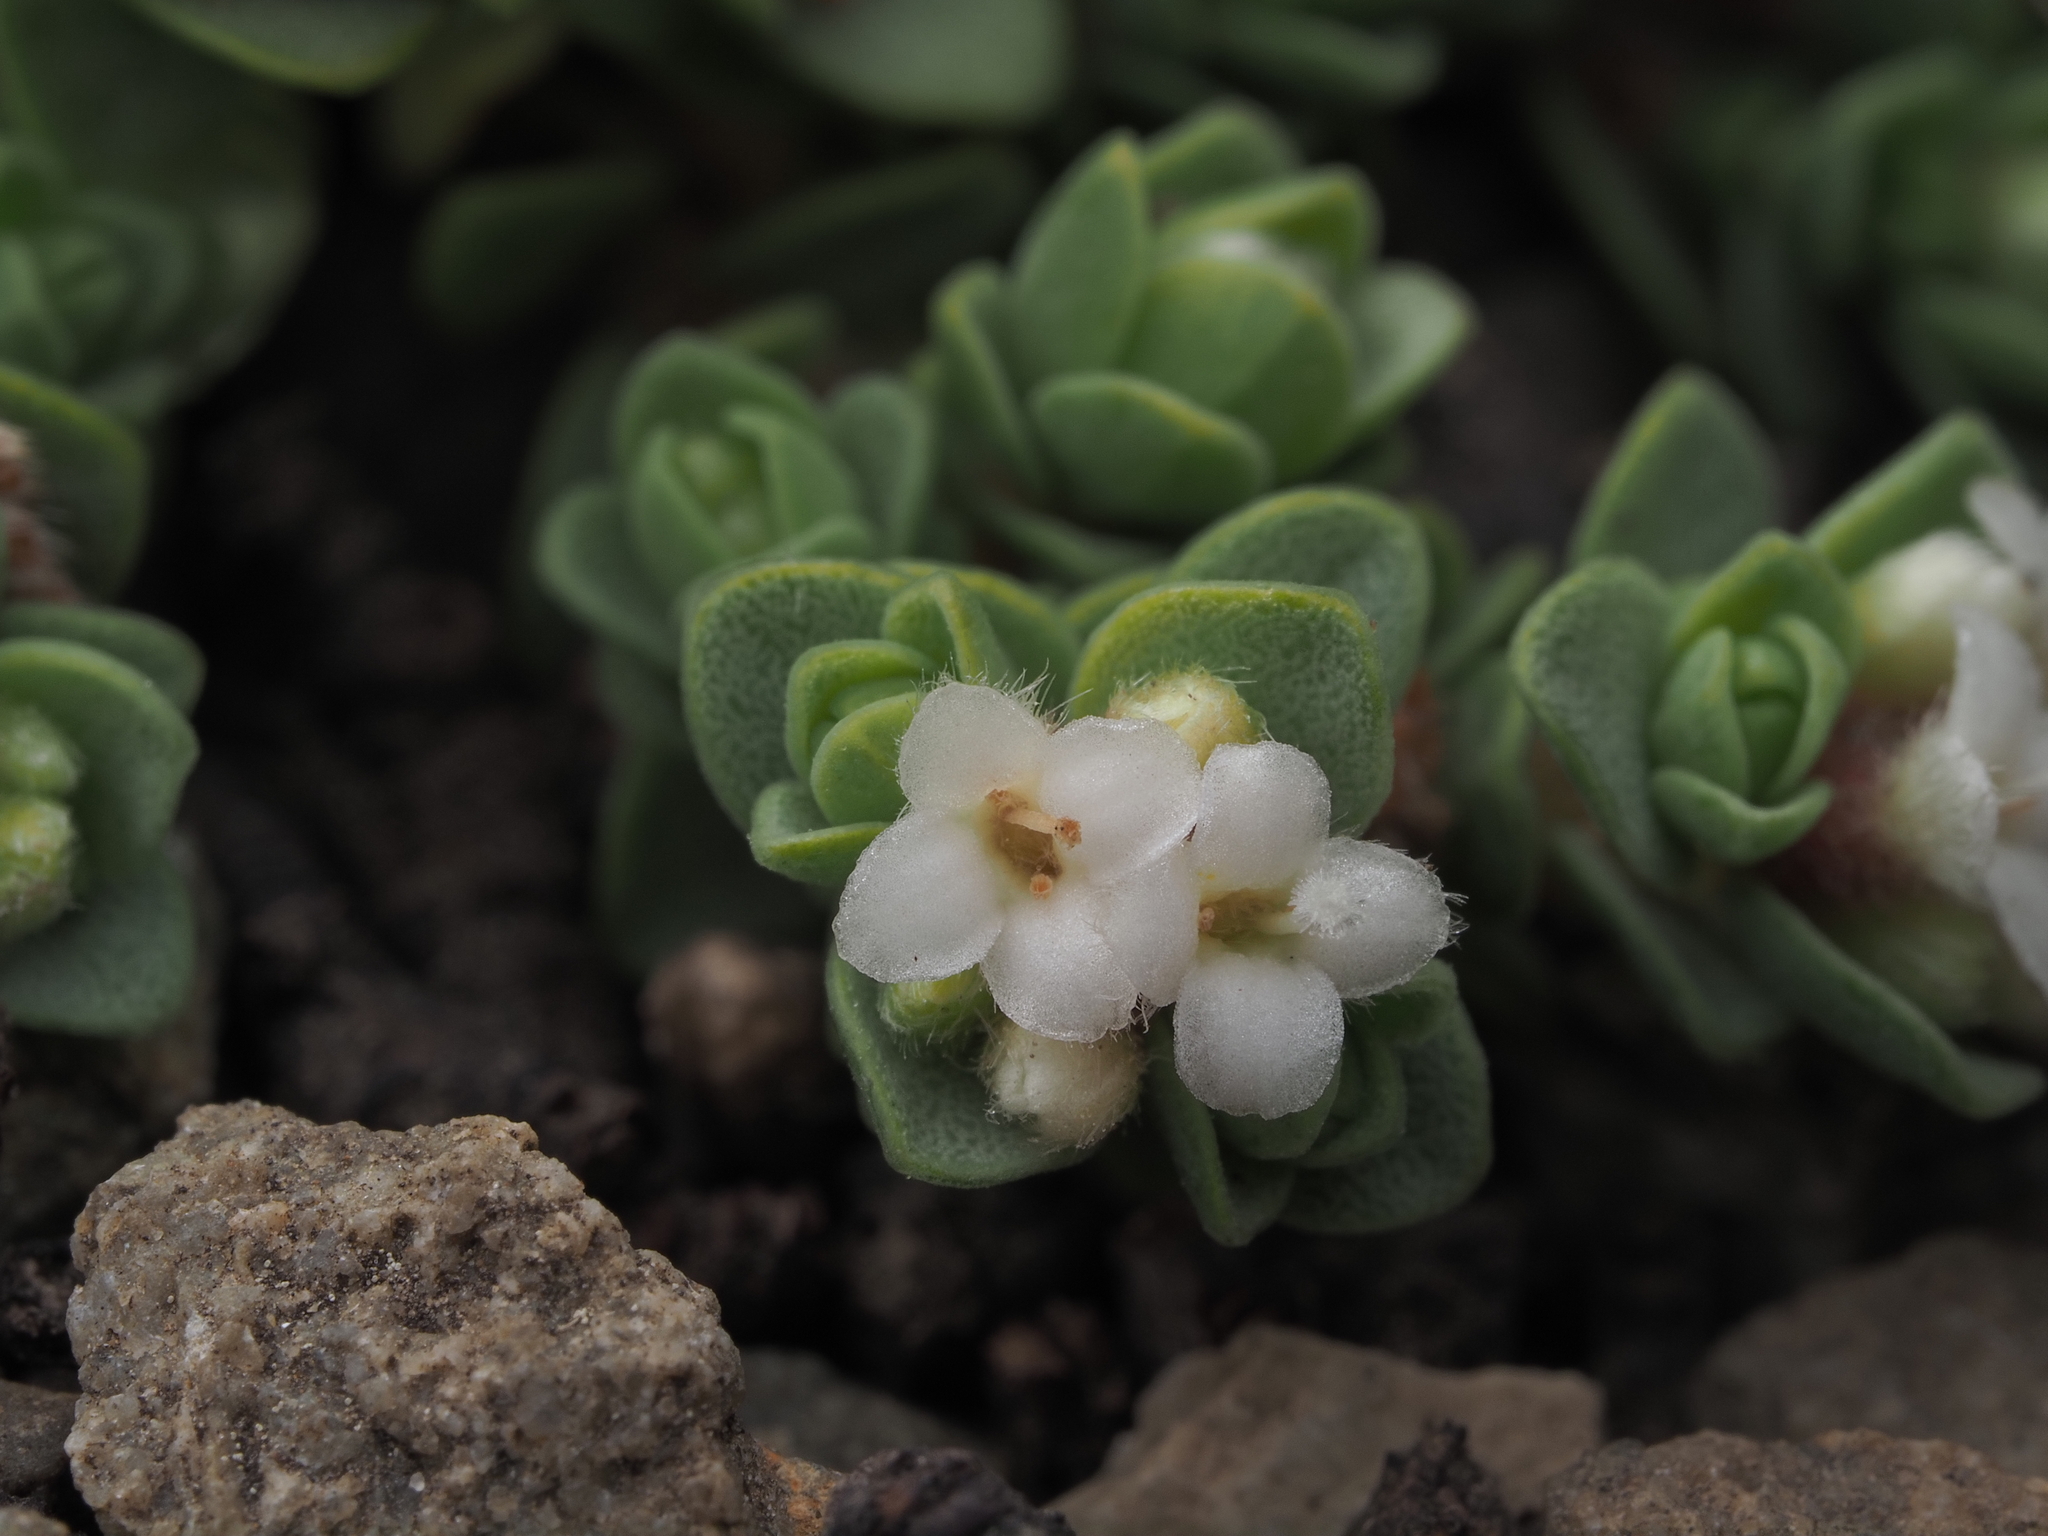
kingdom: Plantae
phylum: Tracheophyta
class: Magnoliopsida
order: Malvales
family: Thymelaeaceae
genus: Pimelea
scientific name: Pimelea carnosa
